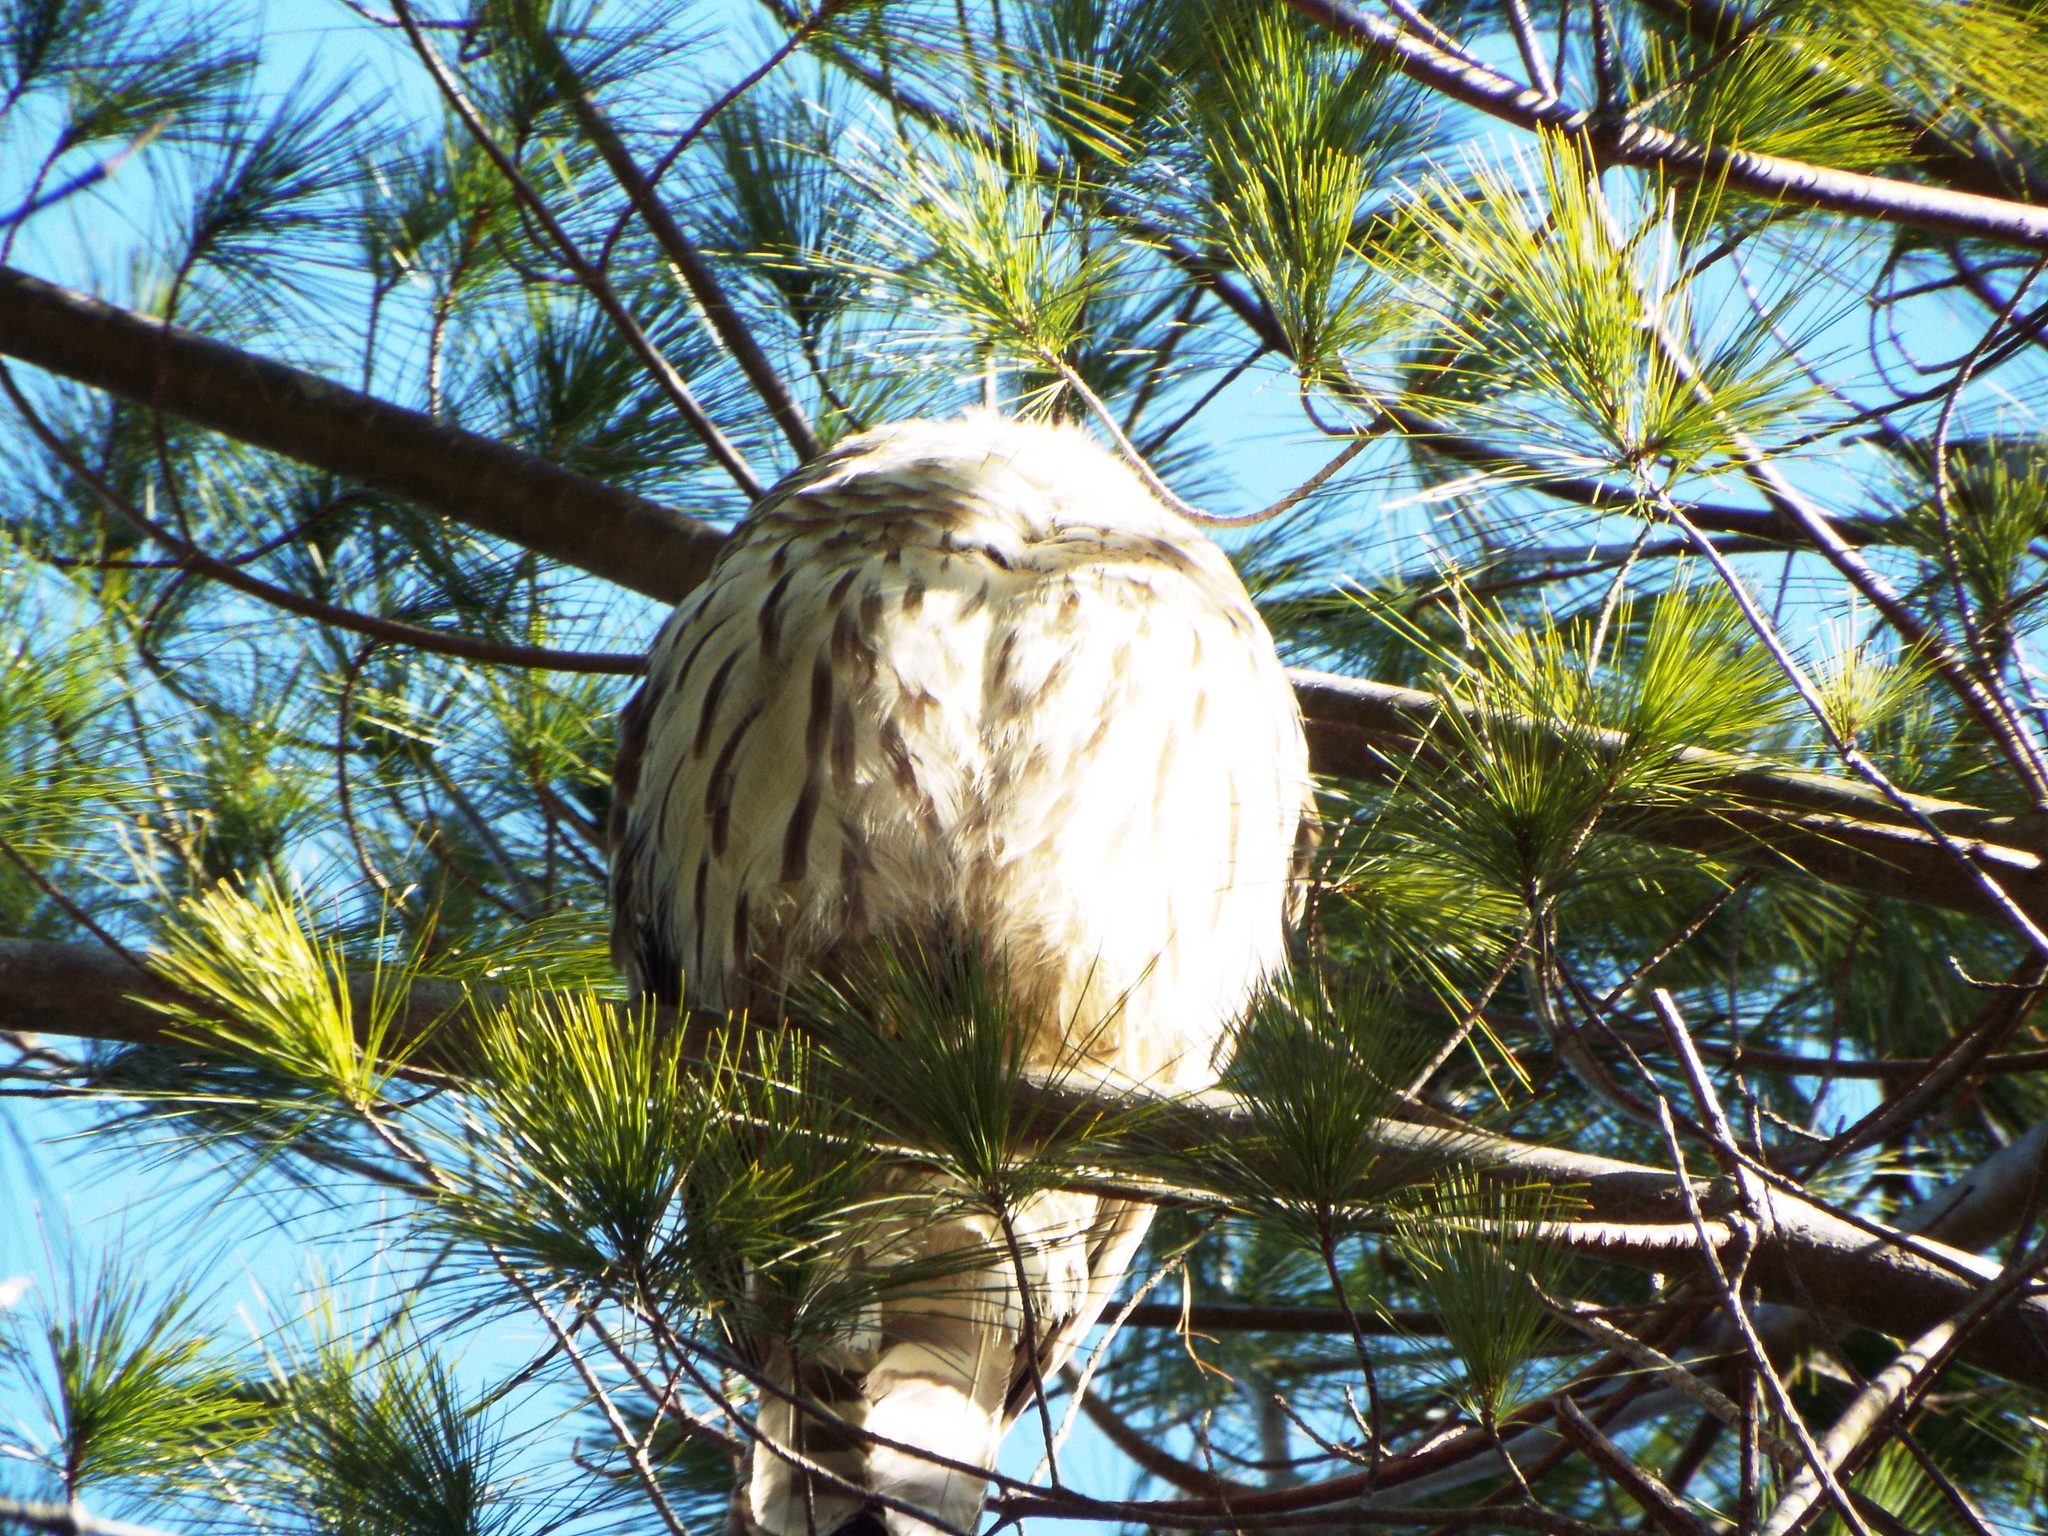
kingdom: Animalia
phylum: Chordata
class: Aves
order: Strigiformes
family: Strigidae
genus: Strix
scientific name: Strix varia
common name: Barred owl
